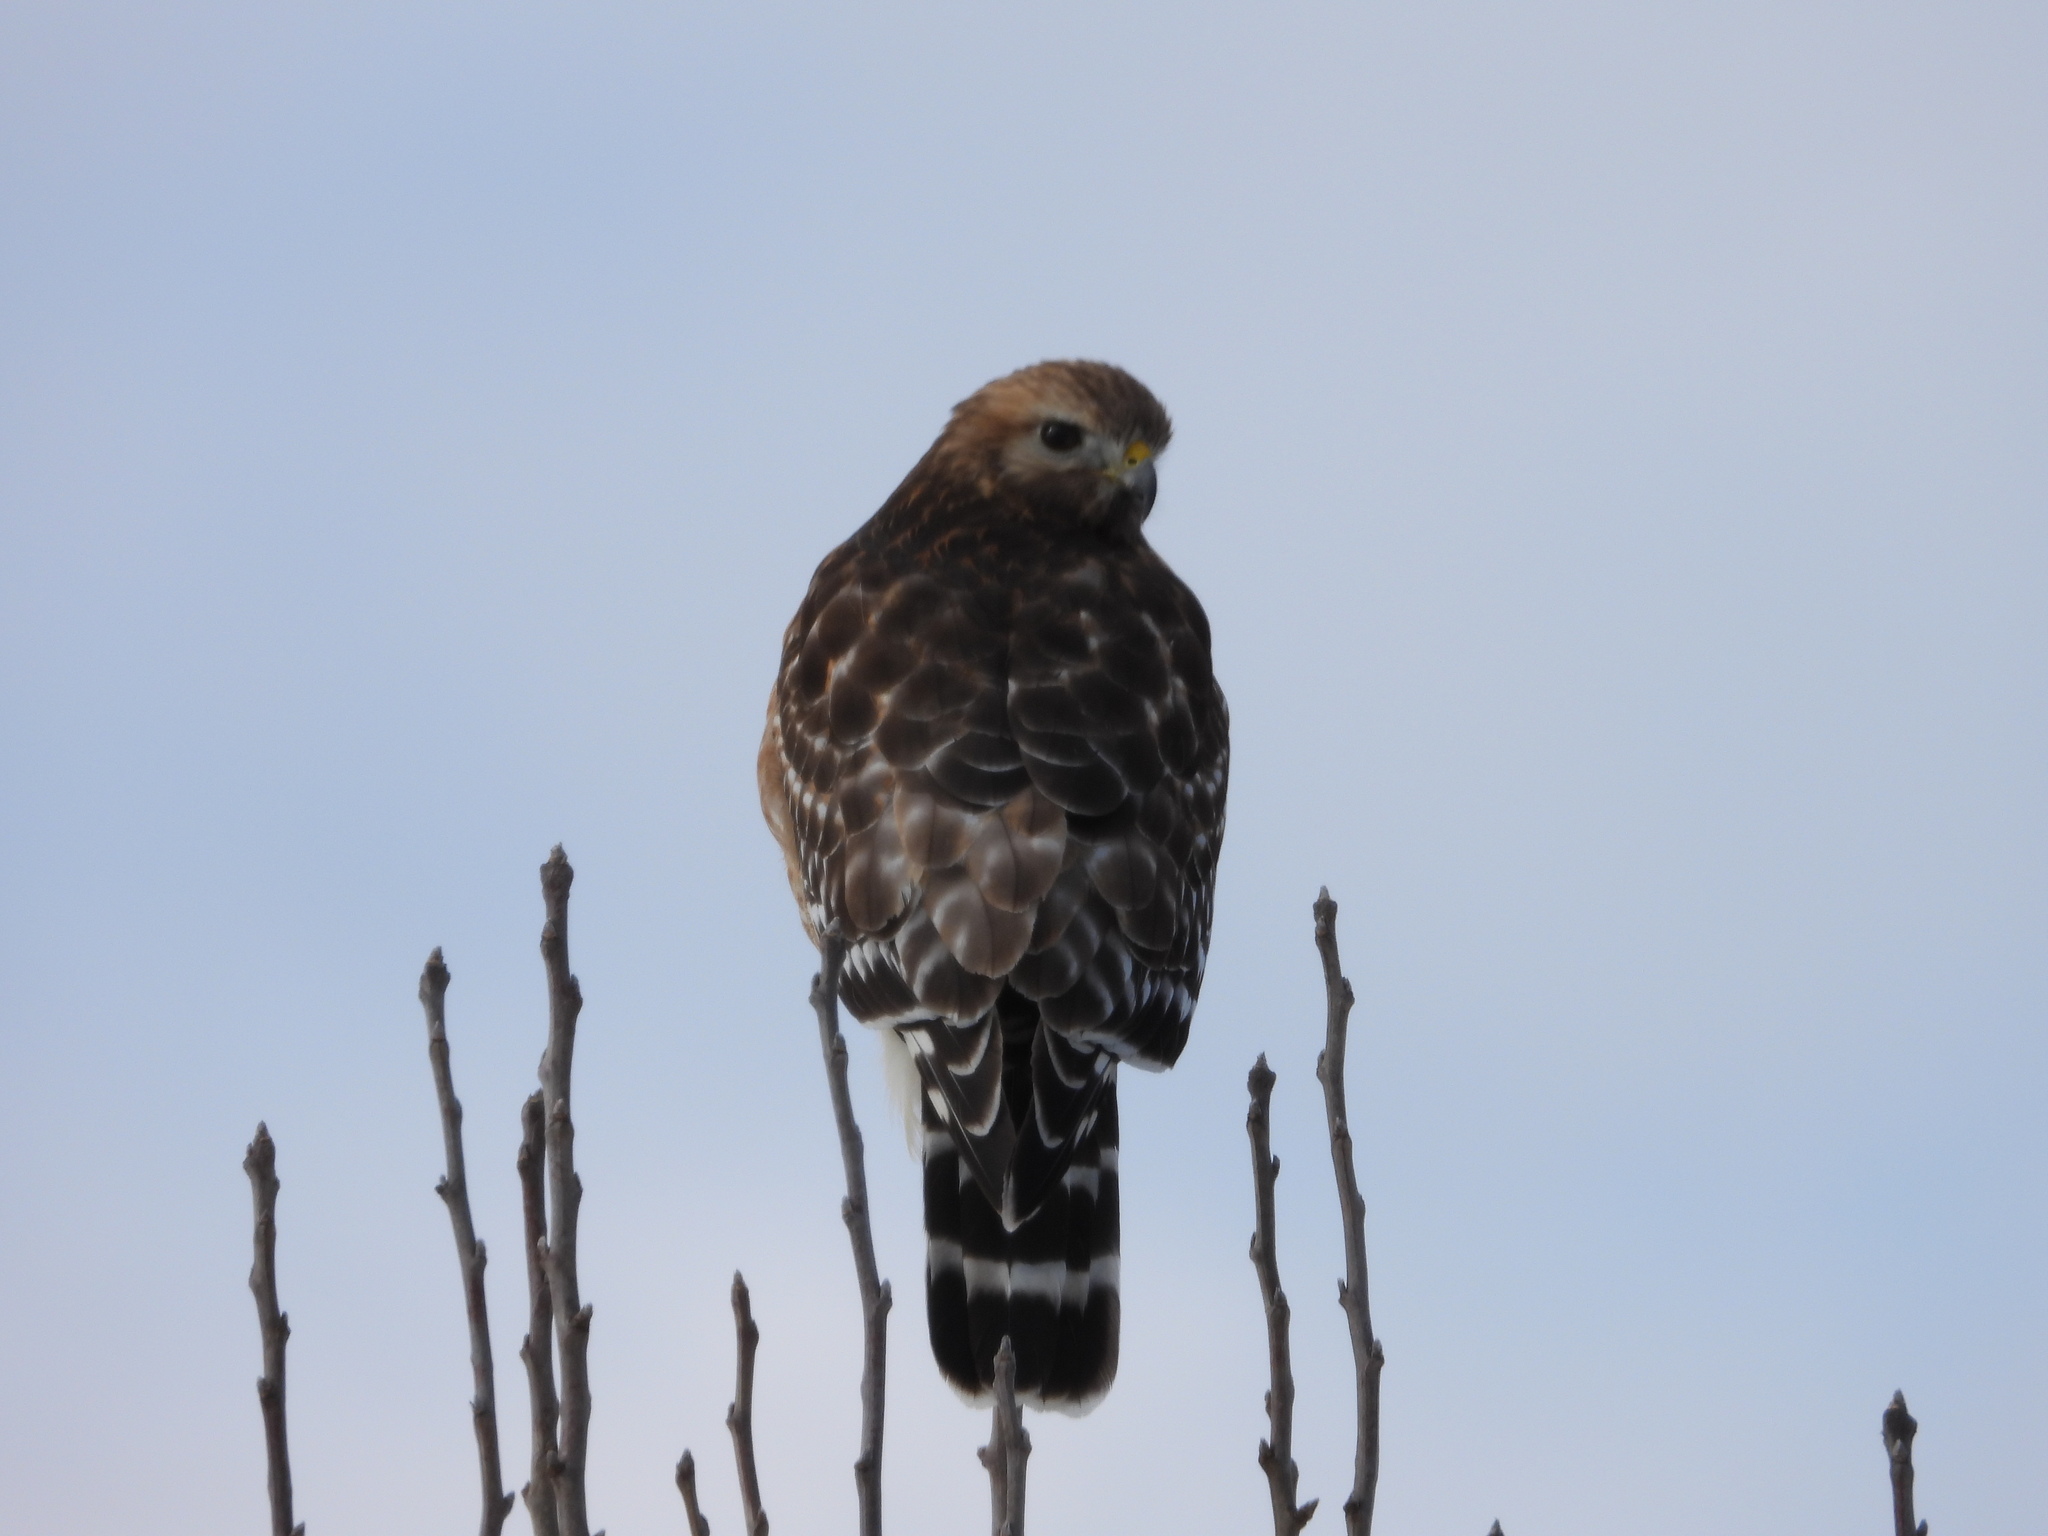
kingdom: Animalia
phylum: Chordata
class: Aves
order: Accipitriformes
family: Accipitridae
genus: Buteo
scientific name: Buteo lineatus
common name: Red-shouldered hawk
